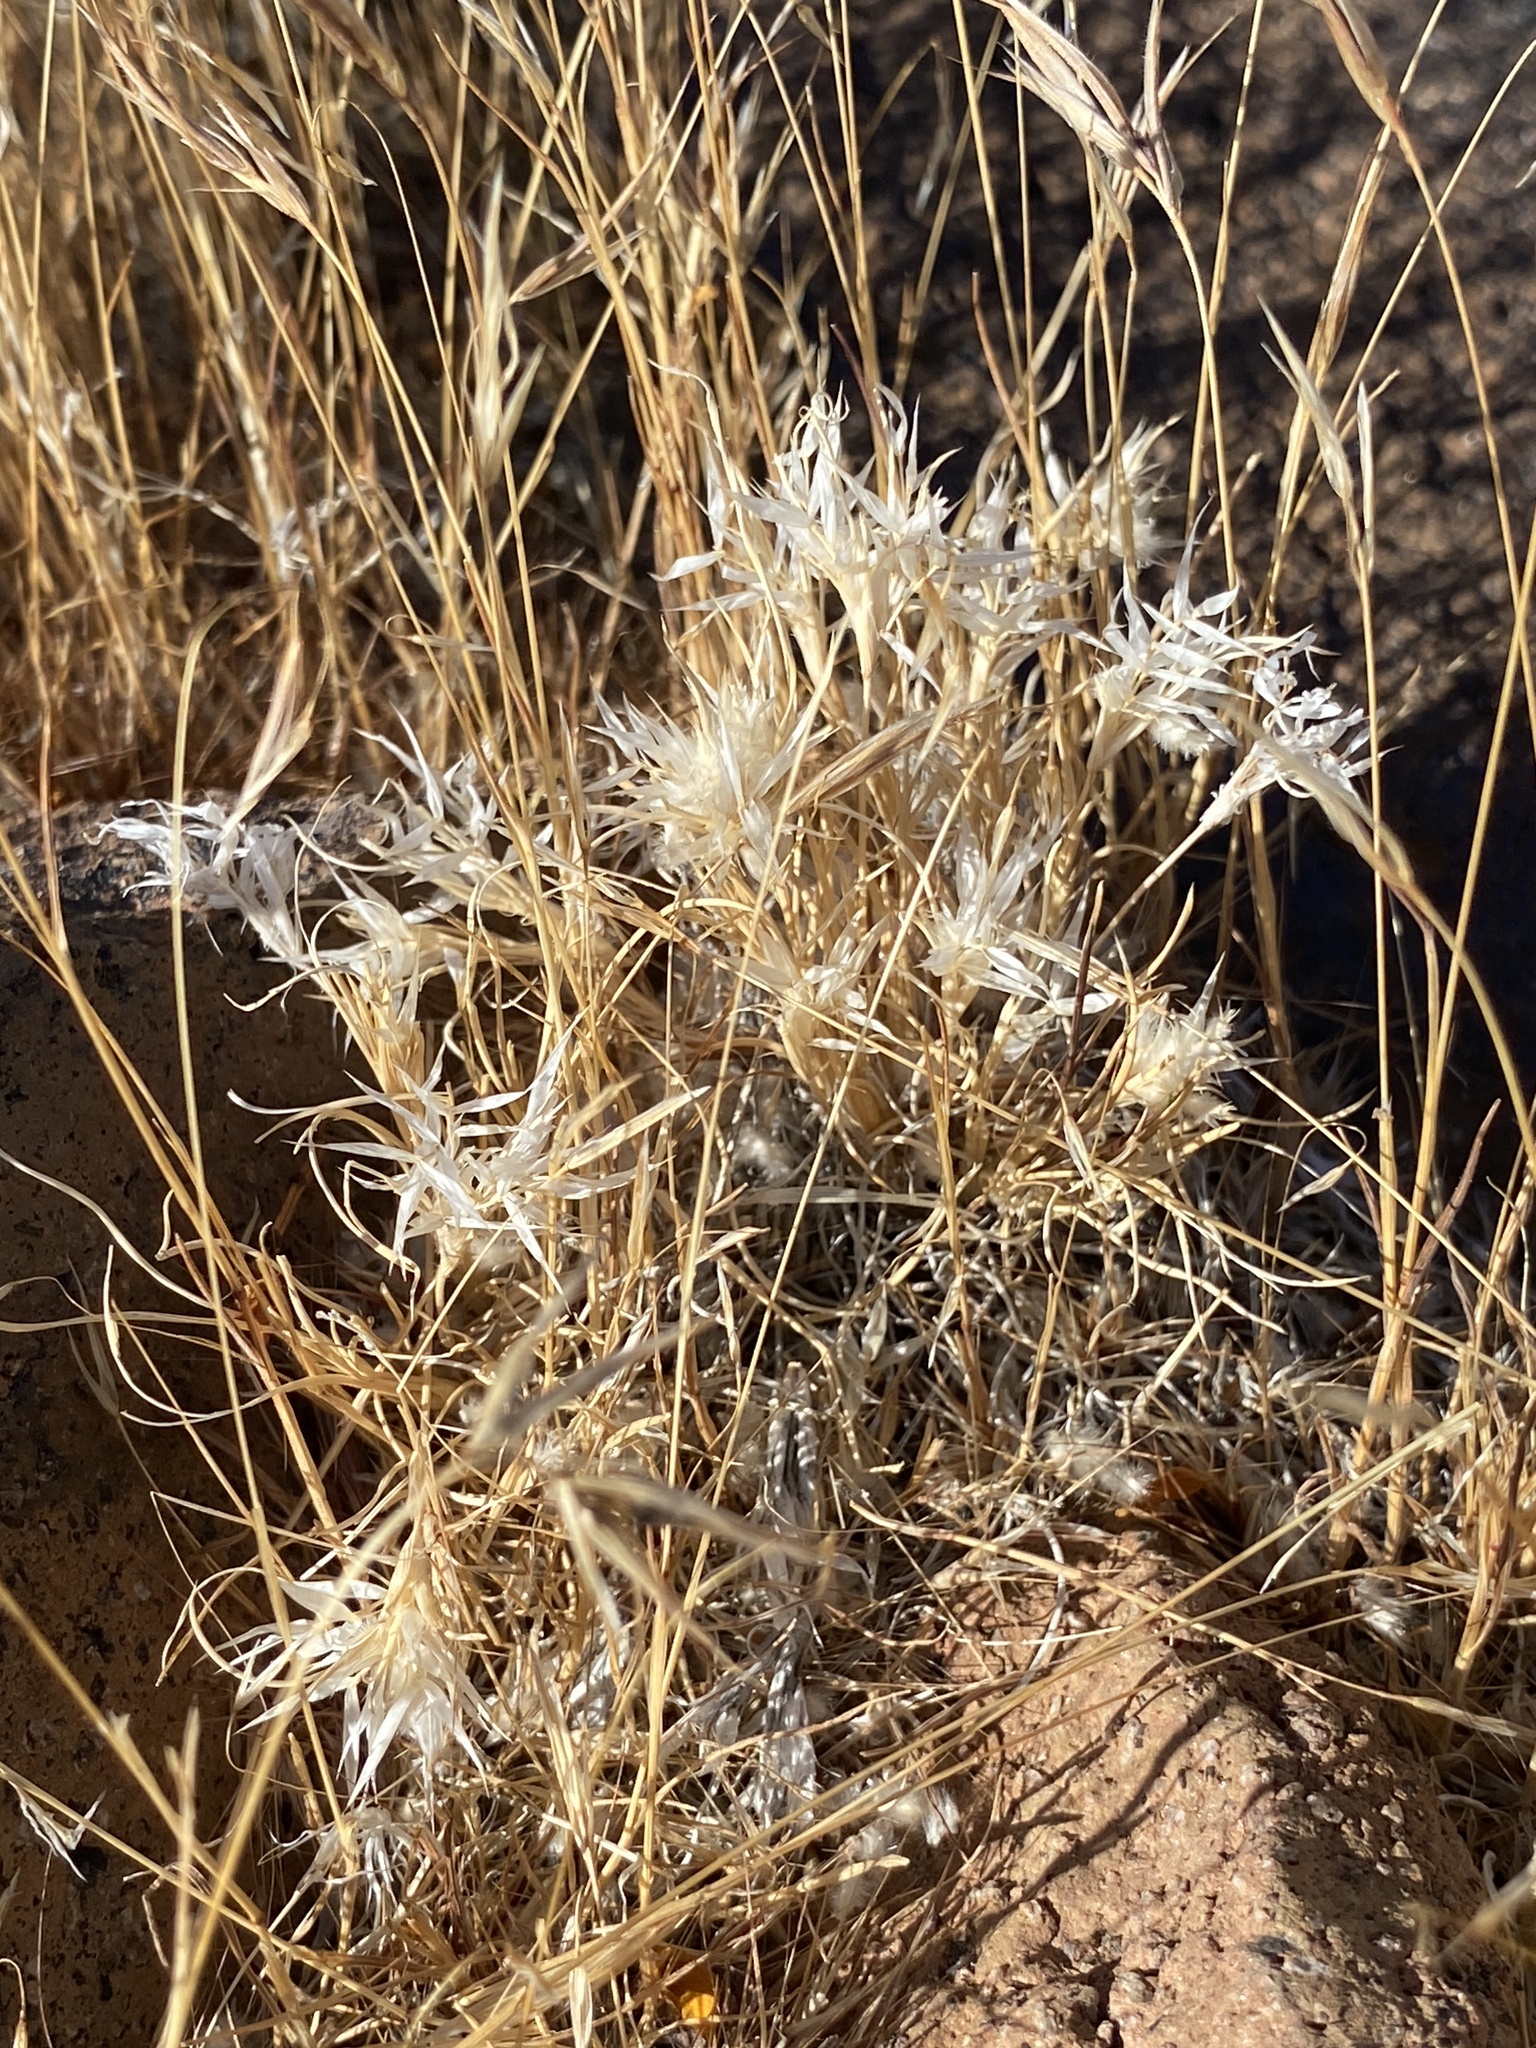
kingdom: Plantae
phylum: Tracheophyta
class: Liliopsida
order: Poales
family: Poaceae
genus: Dasyochloa
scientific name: Dasyochloa pulchella
